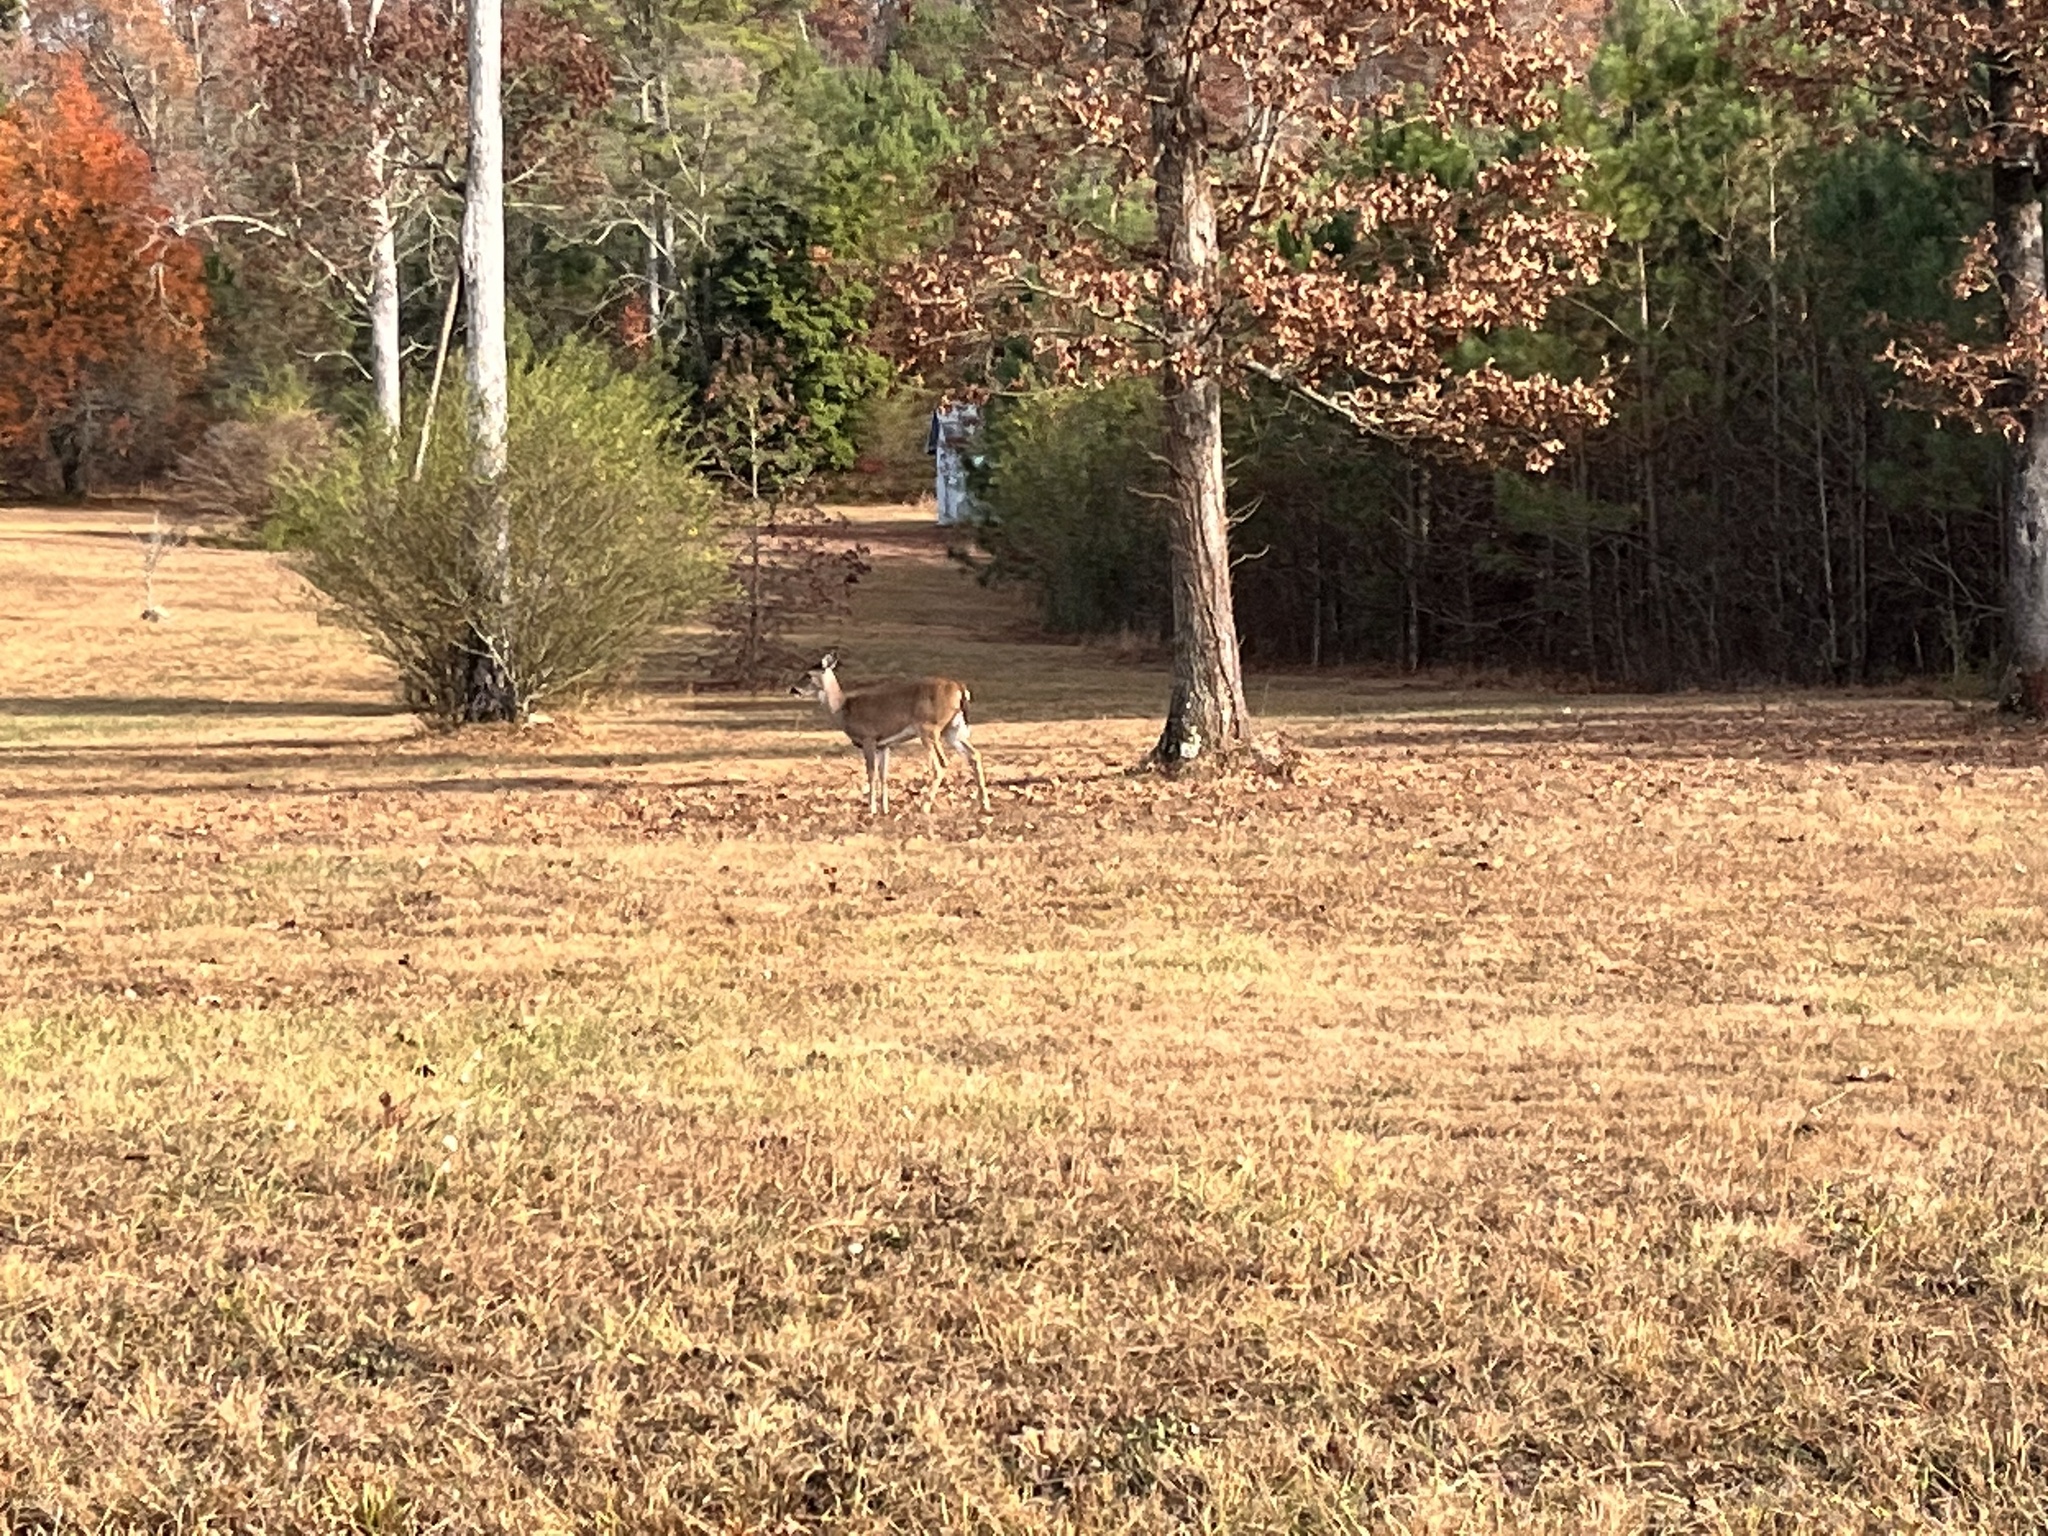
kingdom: Animalia
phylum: Chordata
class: Mammalia
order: Artiodactyla
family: Cervidae
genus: Odocoileus
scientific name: Odocoileus virginianus
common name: White-tailed deer
